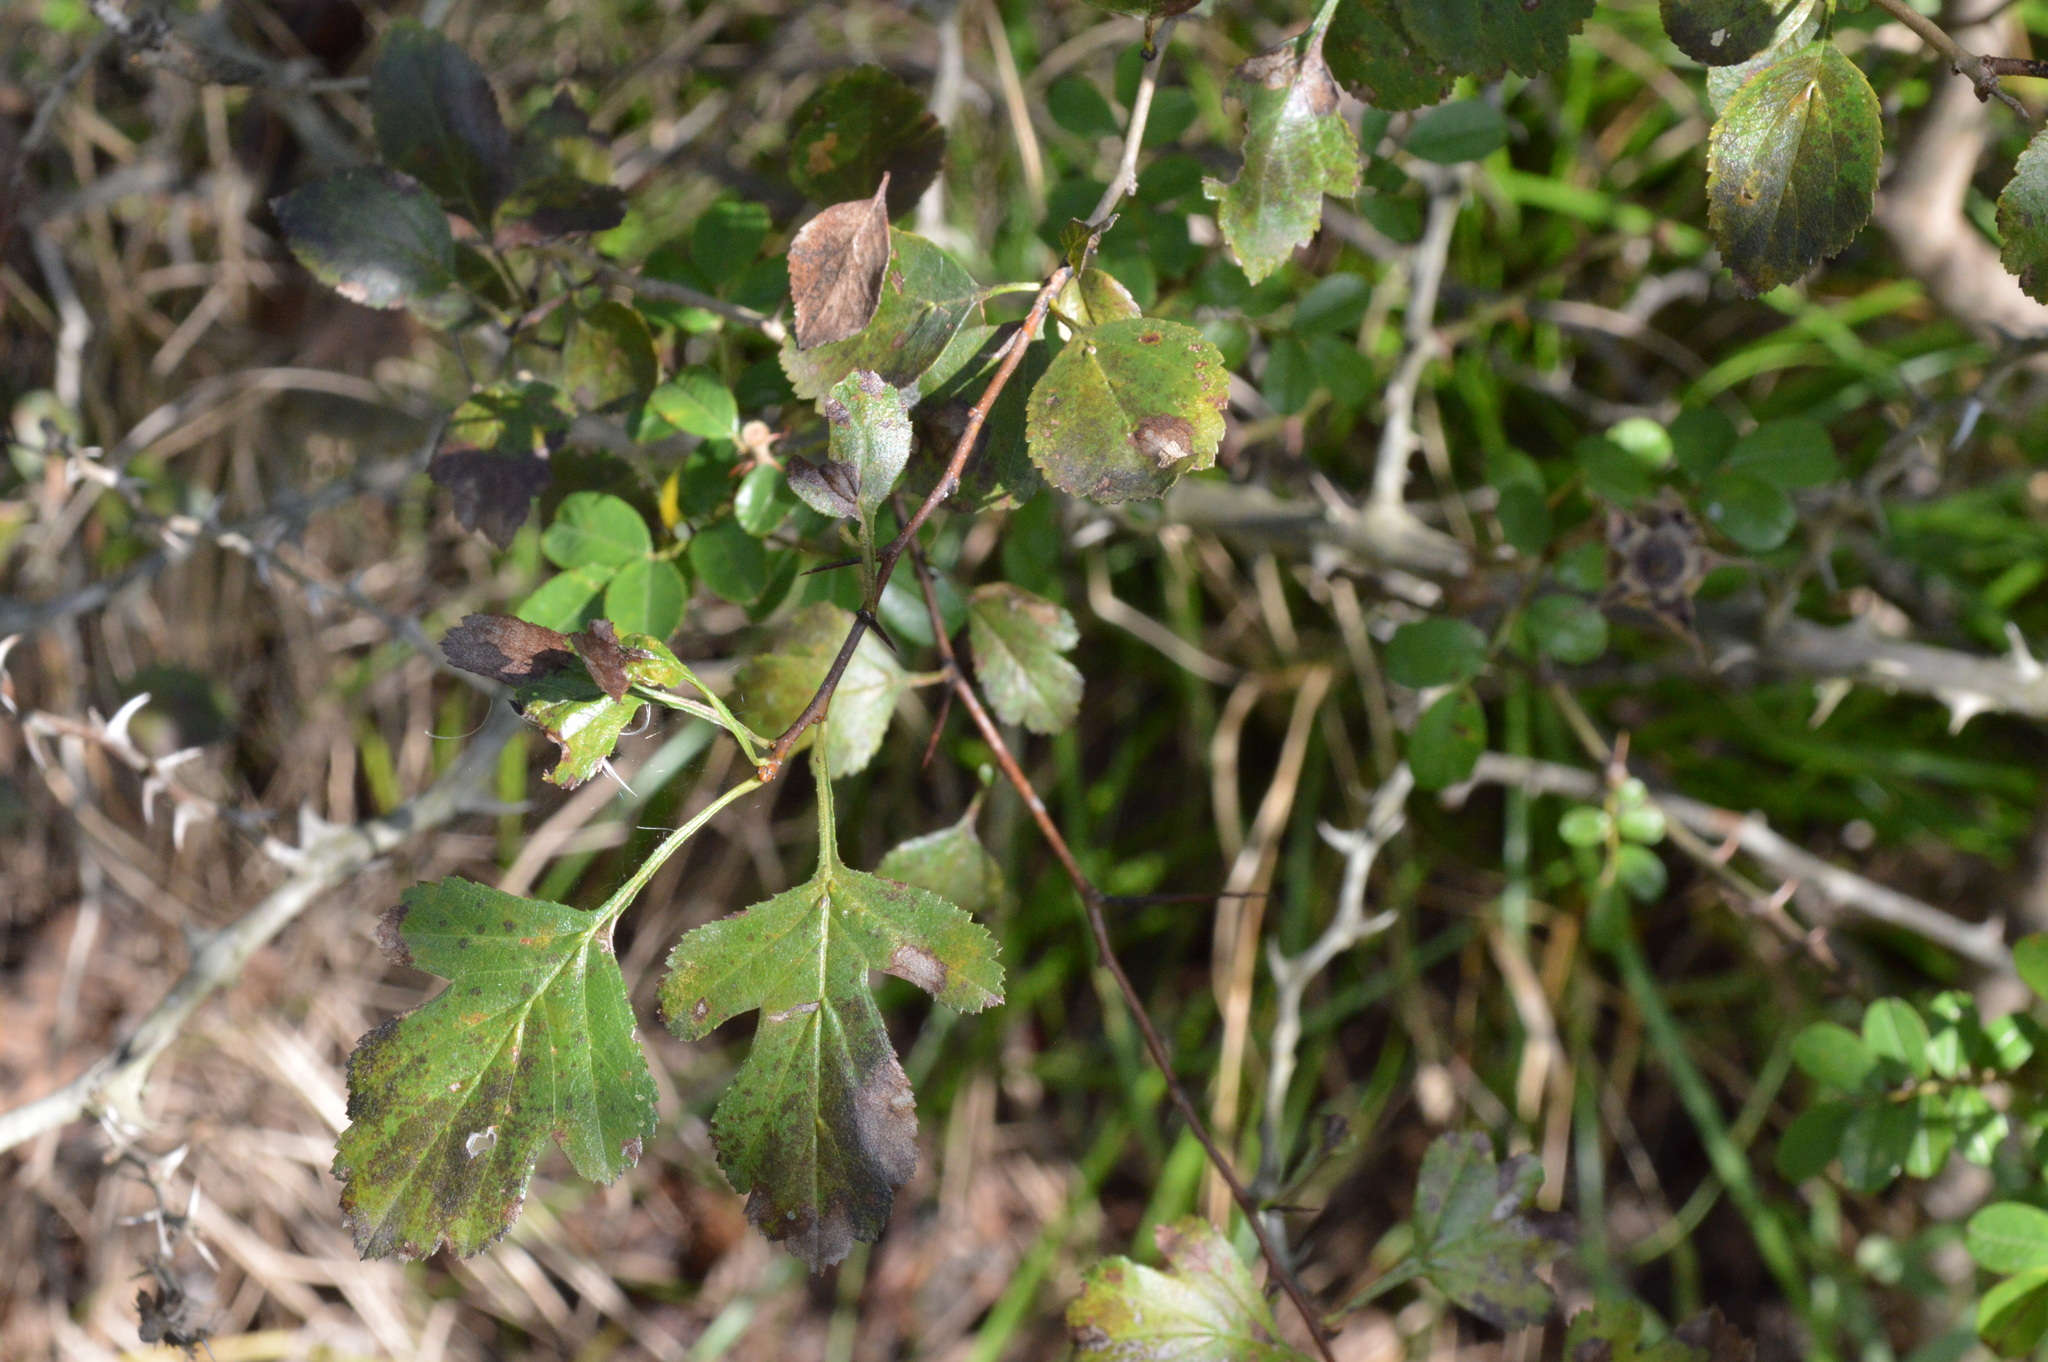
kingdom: Plantae
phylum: Tracheophyta
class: Magnoliopsida
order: Rosales
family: Rosaceae
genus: Crataegus
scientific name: Crataegus viridis
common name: Southernthorn
